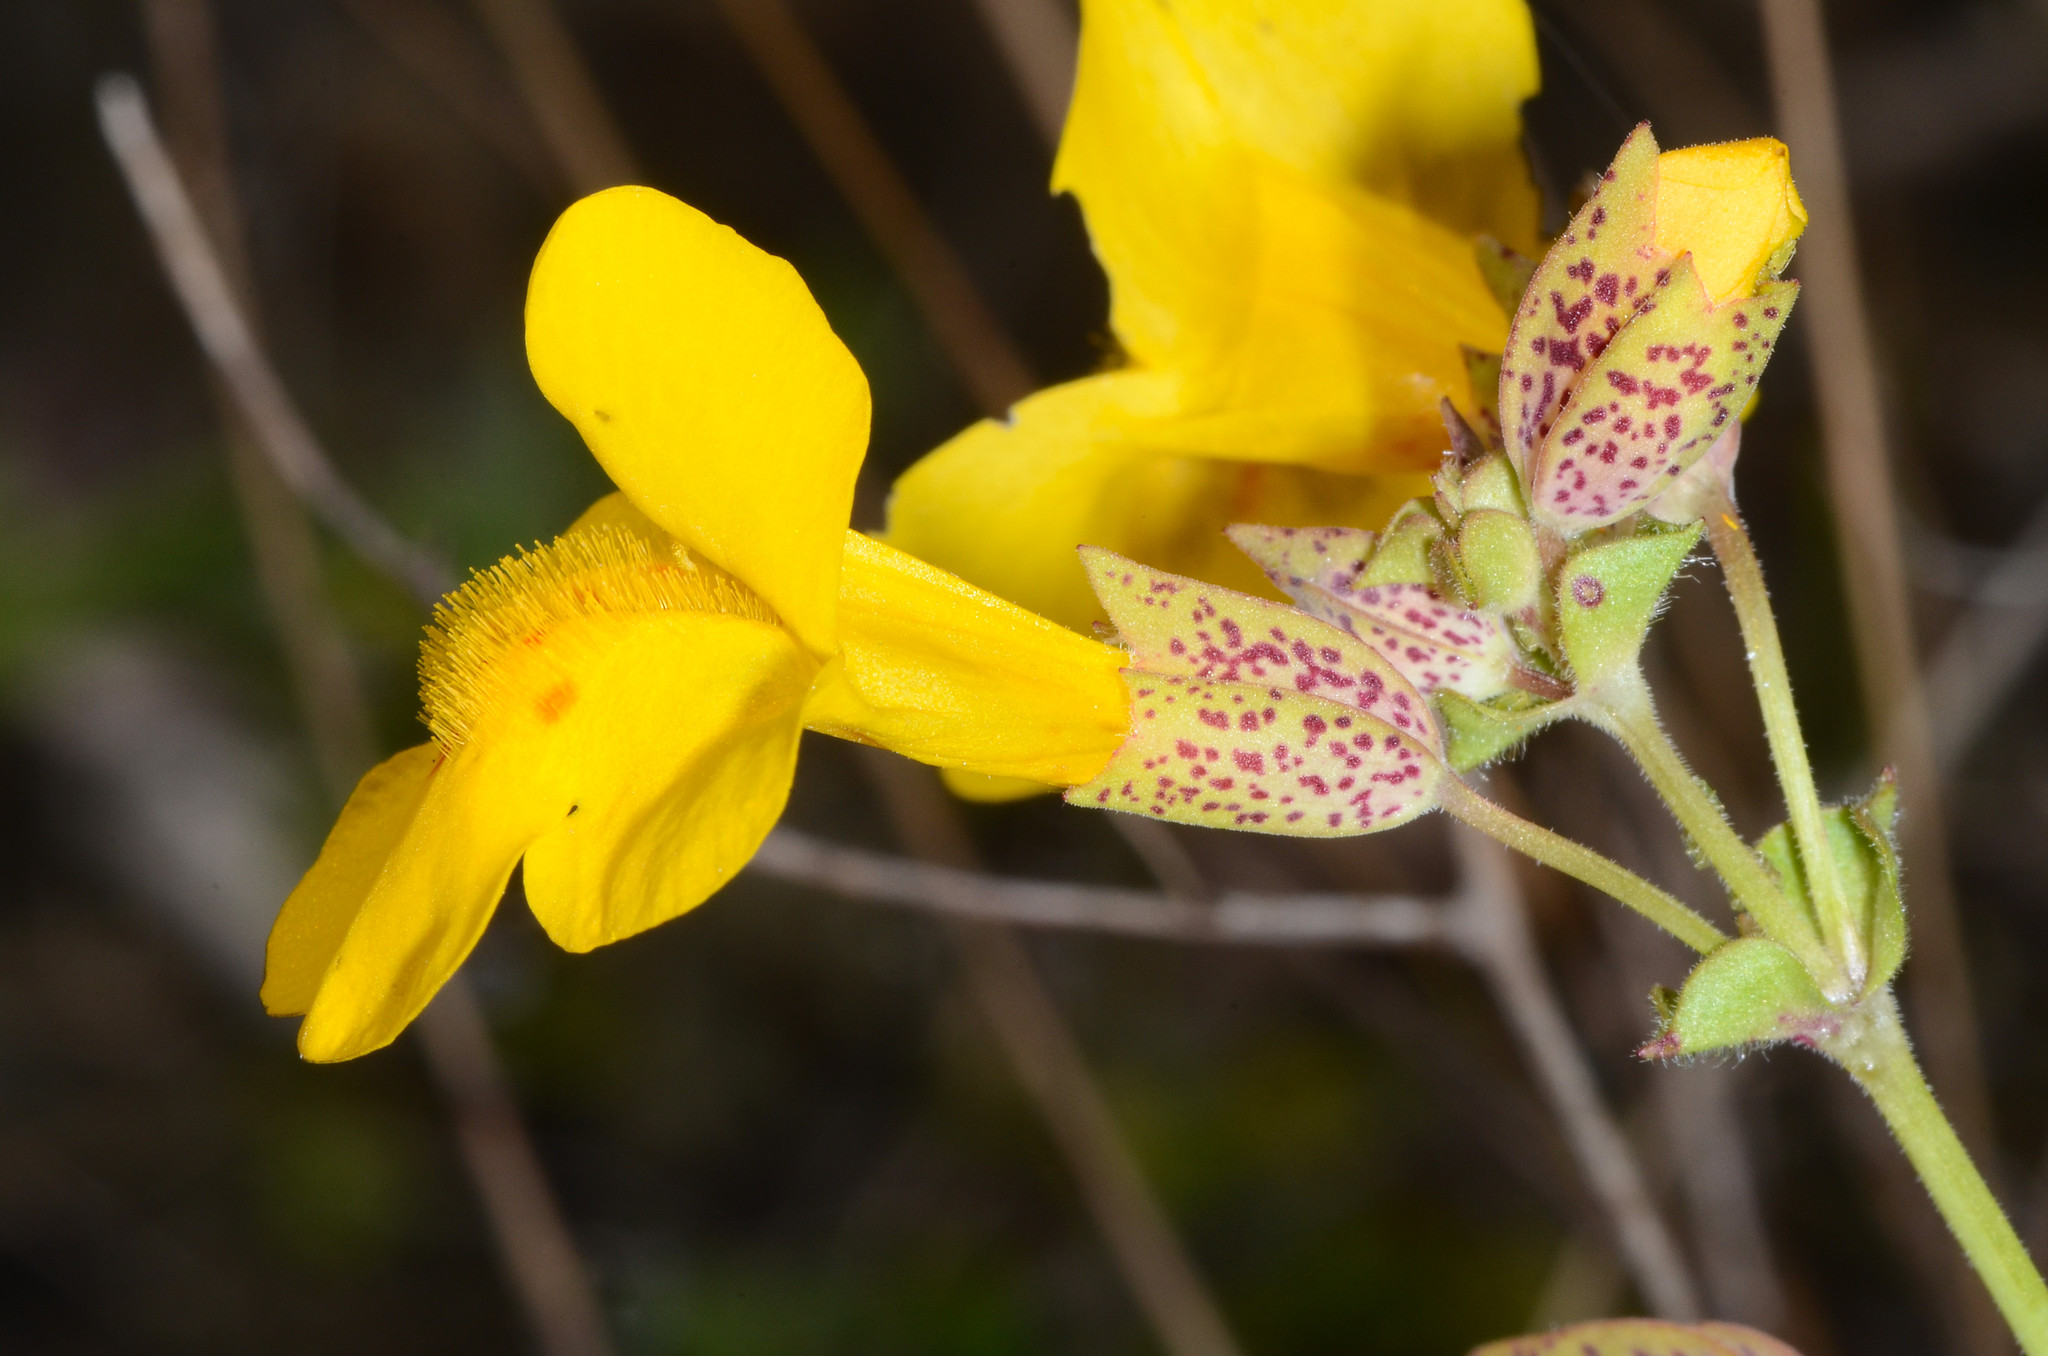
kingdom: Plantae
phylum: Tracheophyta
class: Magnoliopsida
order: Lamiales
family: Phrymaceae
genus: Erythranthe
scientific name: Erythranthe guttata
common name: Monkeyflower
